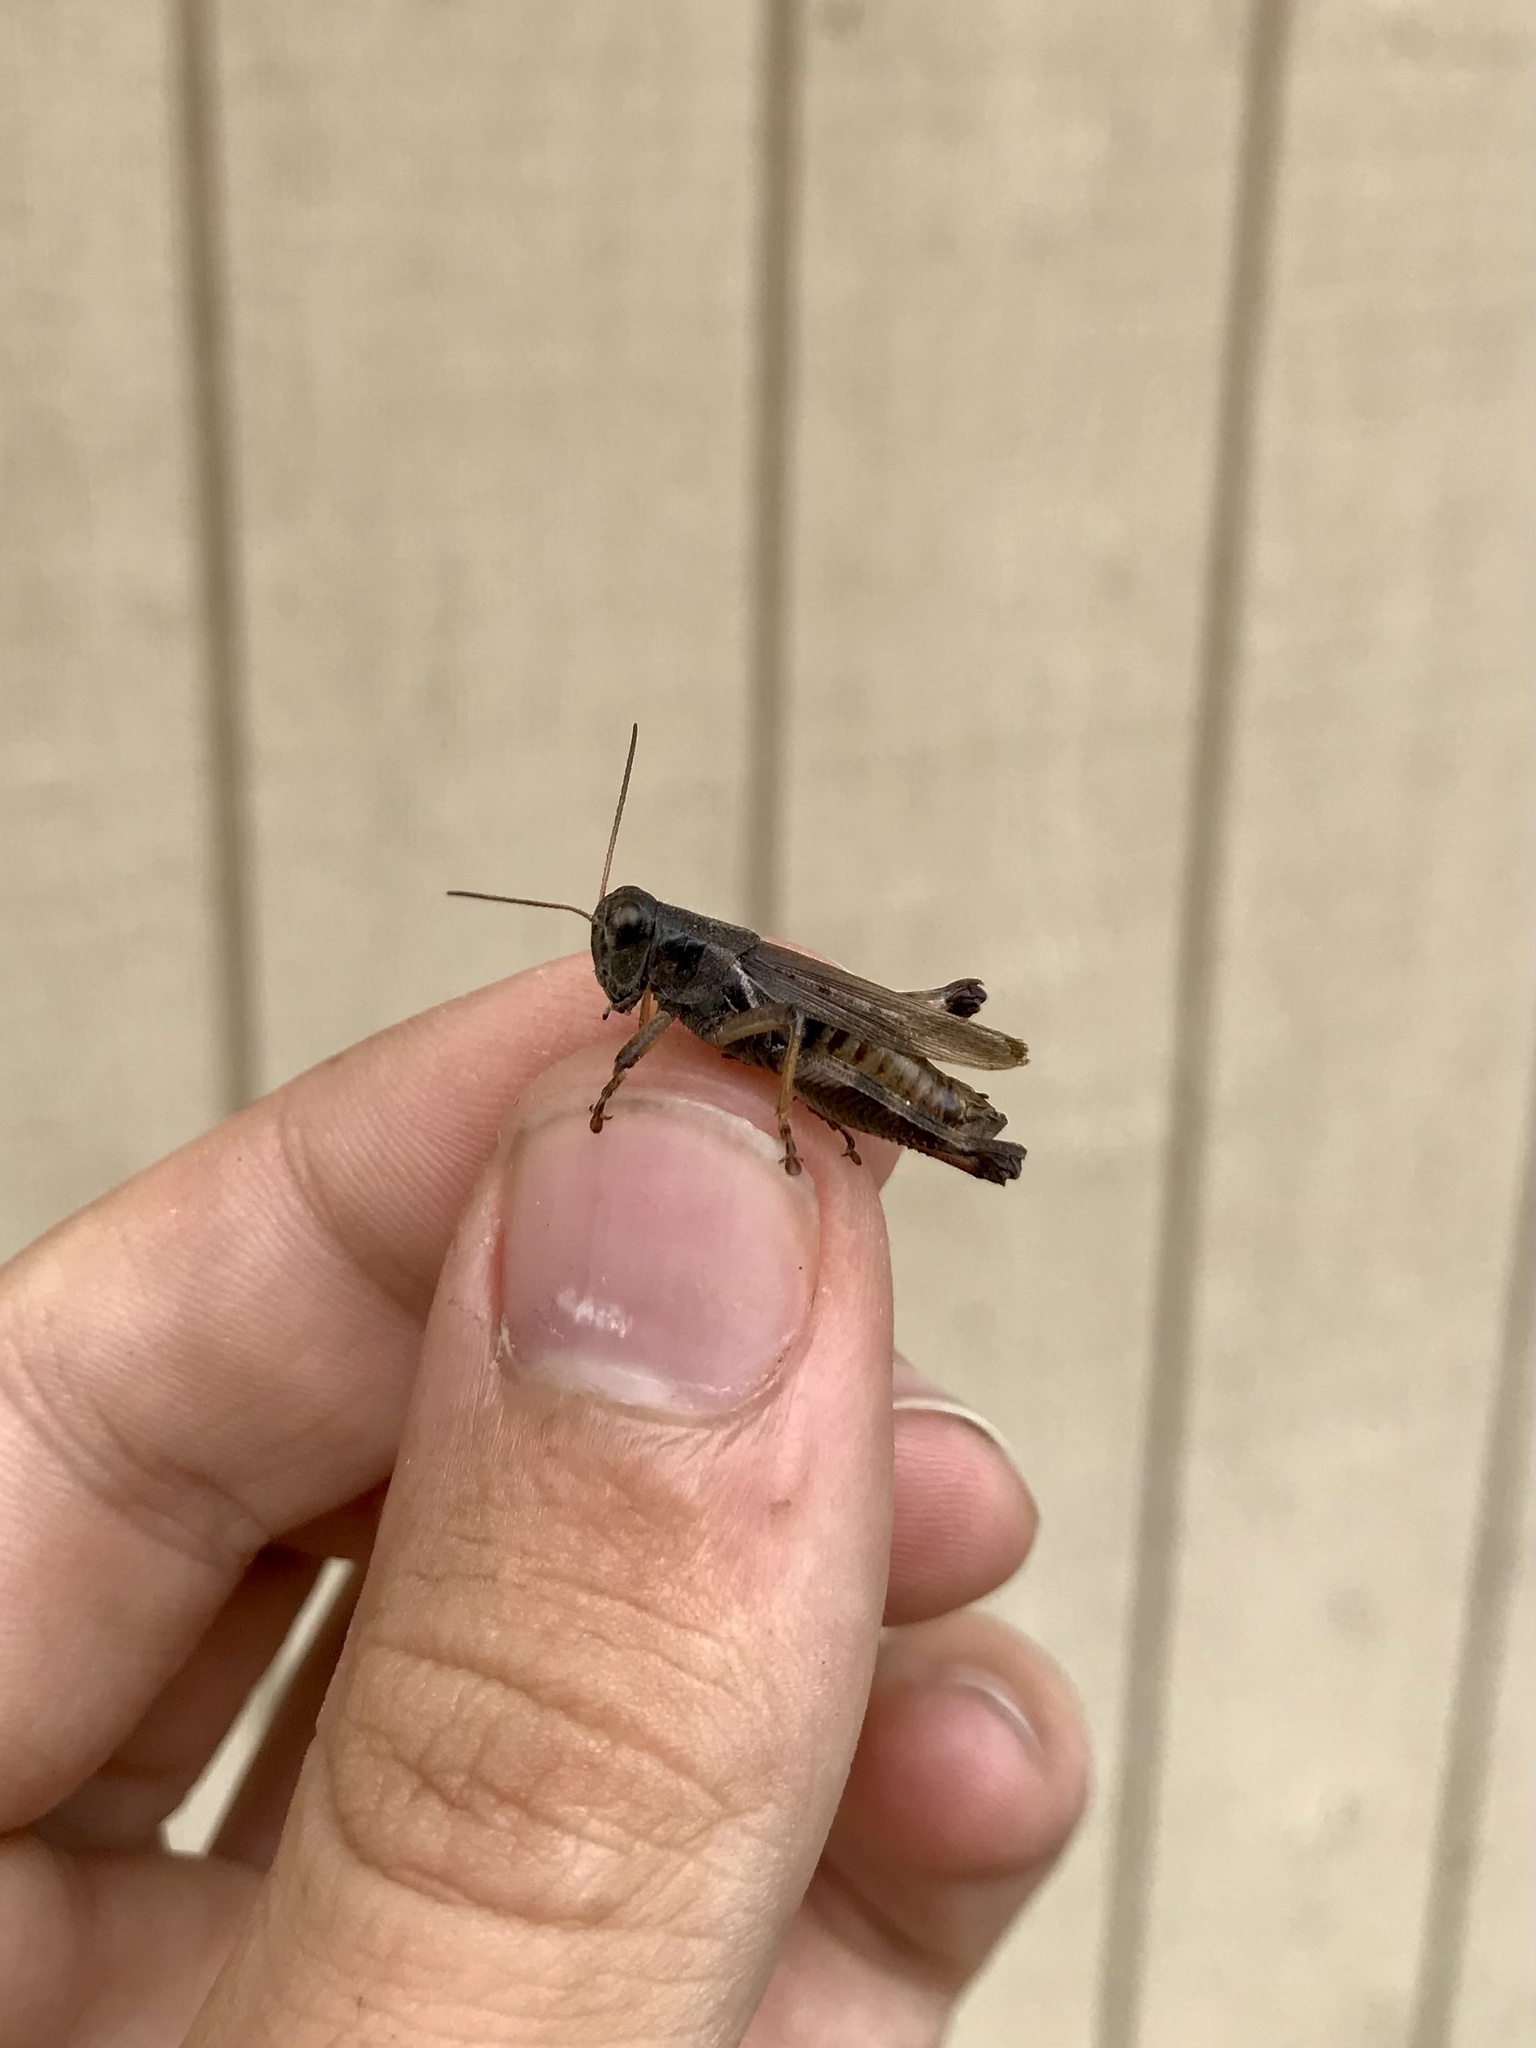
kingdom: Animalia
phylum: Arthropoda
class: Insecta
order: Orthoptera
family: Acrididae
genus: Melanoplus
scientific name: Melanoplus keeleri
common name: Keeler grasshopper
